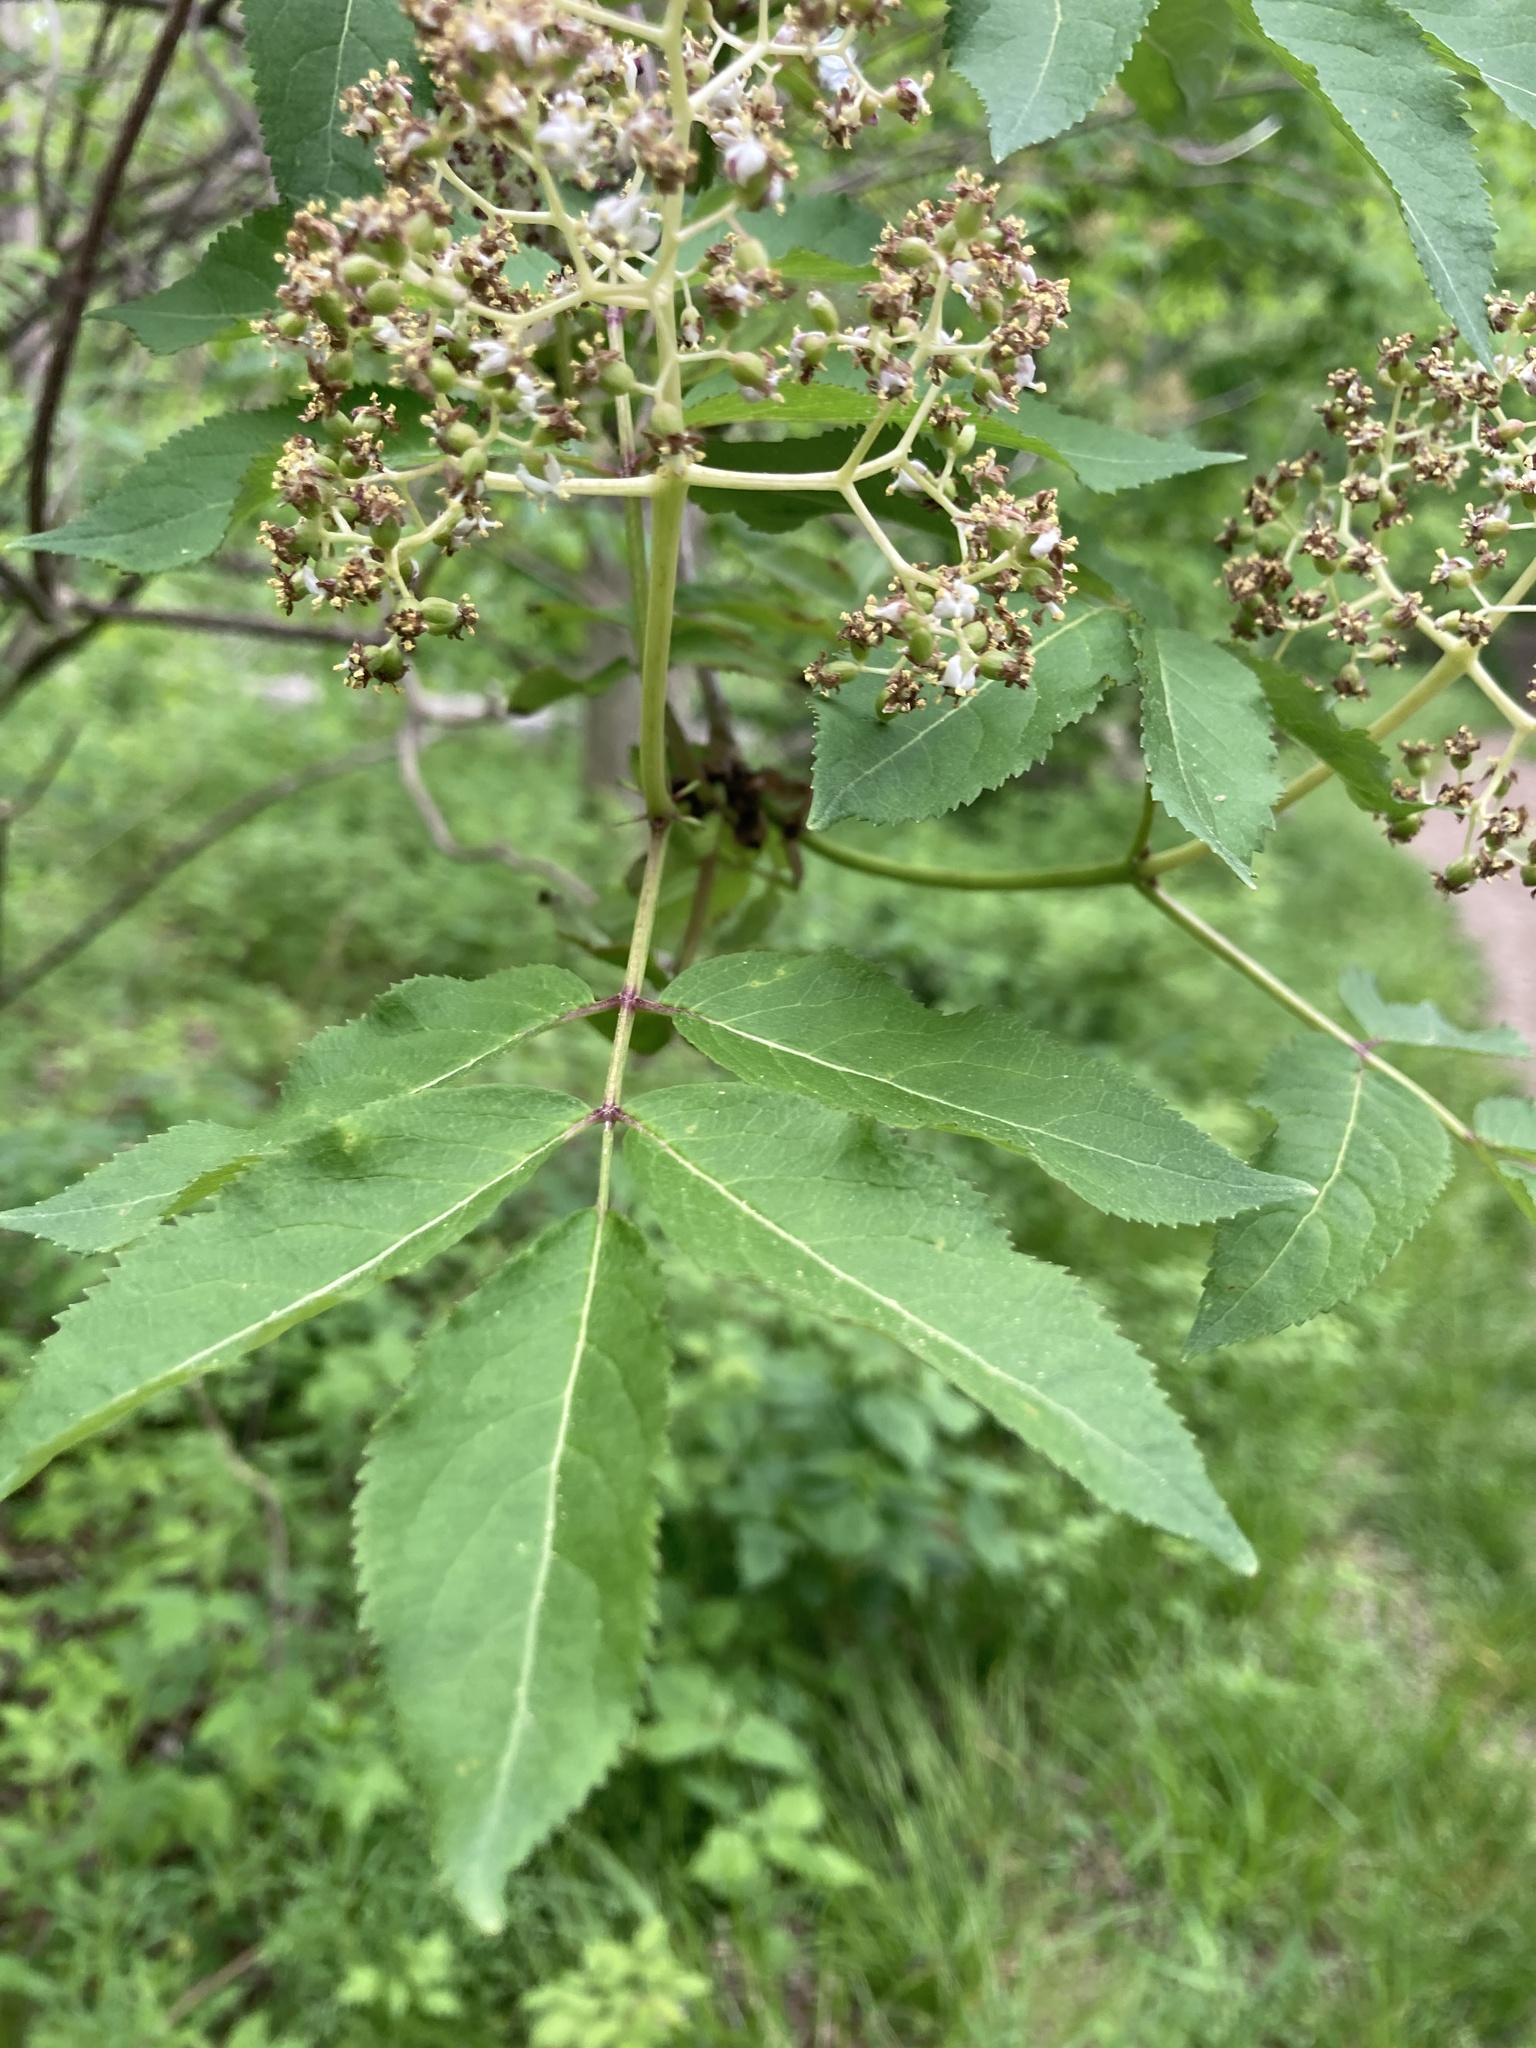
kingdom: Plantae
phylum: Tracheophyta
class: Magnoliopsida
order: Dipsacales
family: Viburnaceae
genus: Sambucus
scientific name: Sambucus racemosa
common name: Red-berried elder
